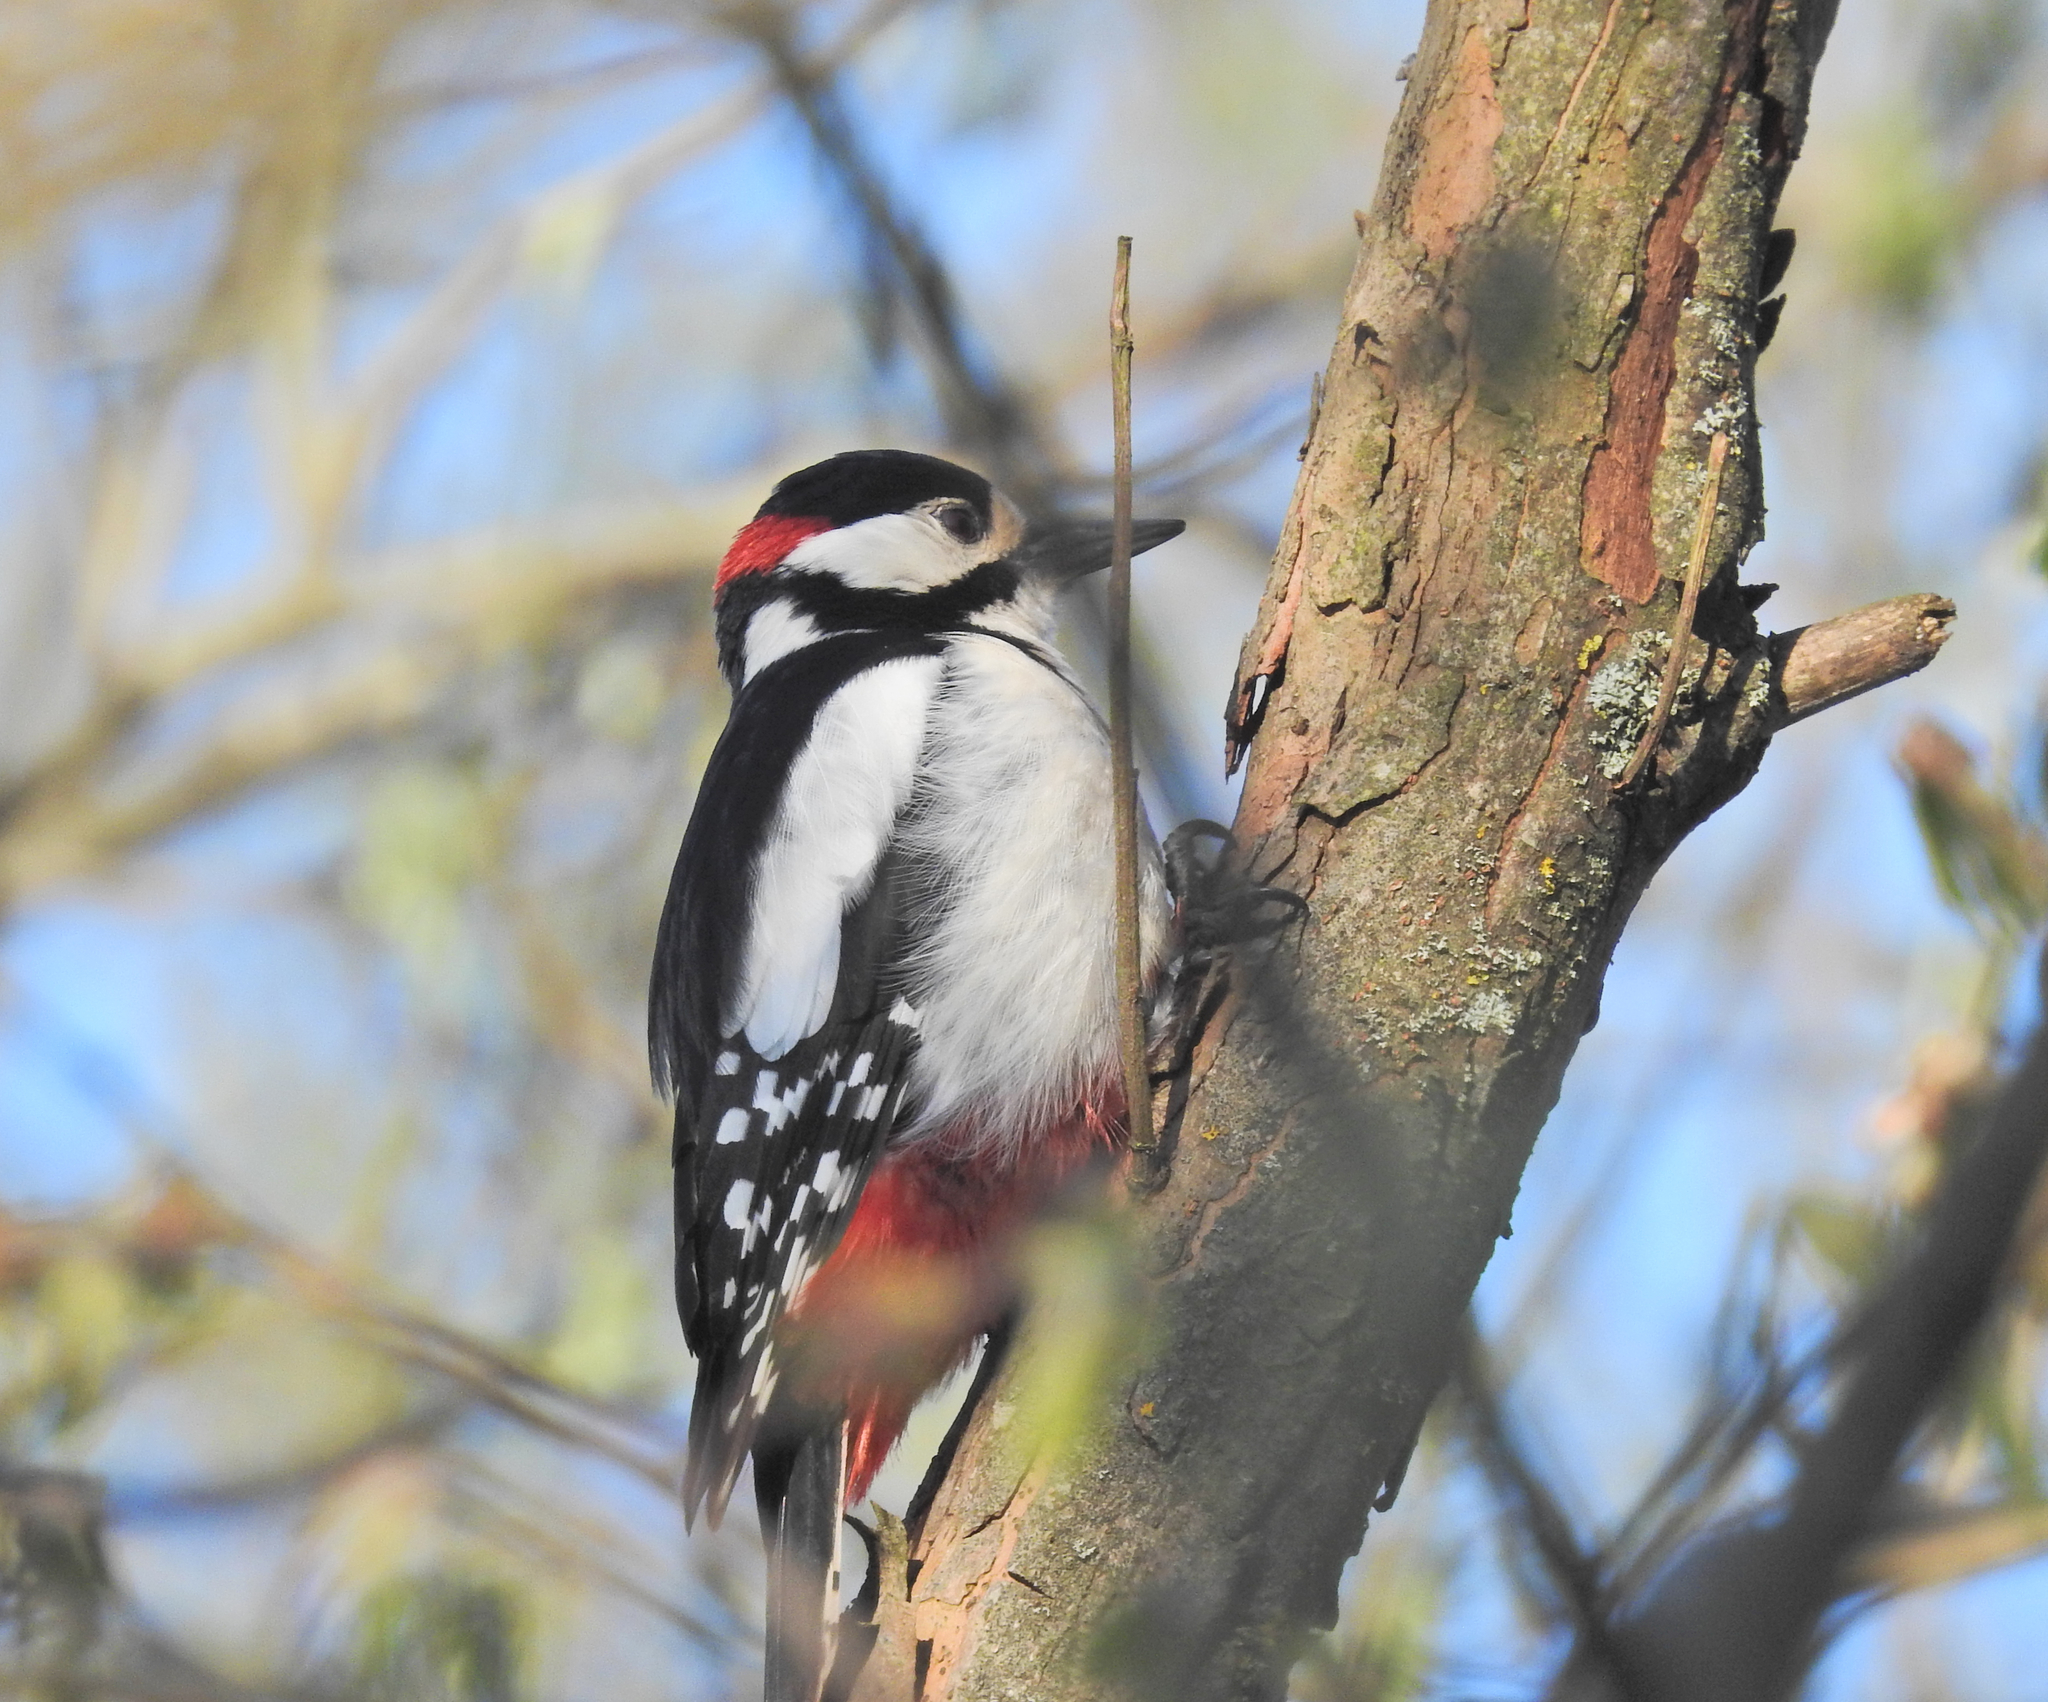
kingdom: Animalia
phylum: Chordata
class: Aves
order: Piciformes
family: Picidae
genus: Dendrocopos
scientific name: Dendrocopos major
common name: Great spotted woodpecker
